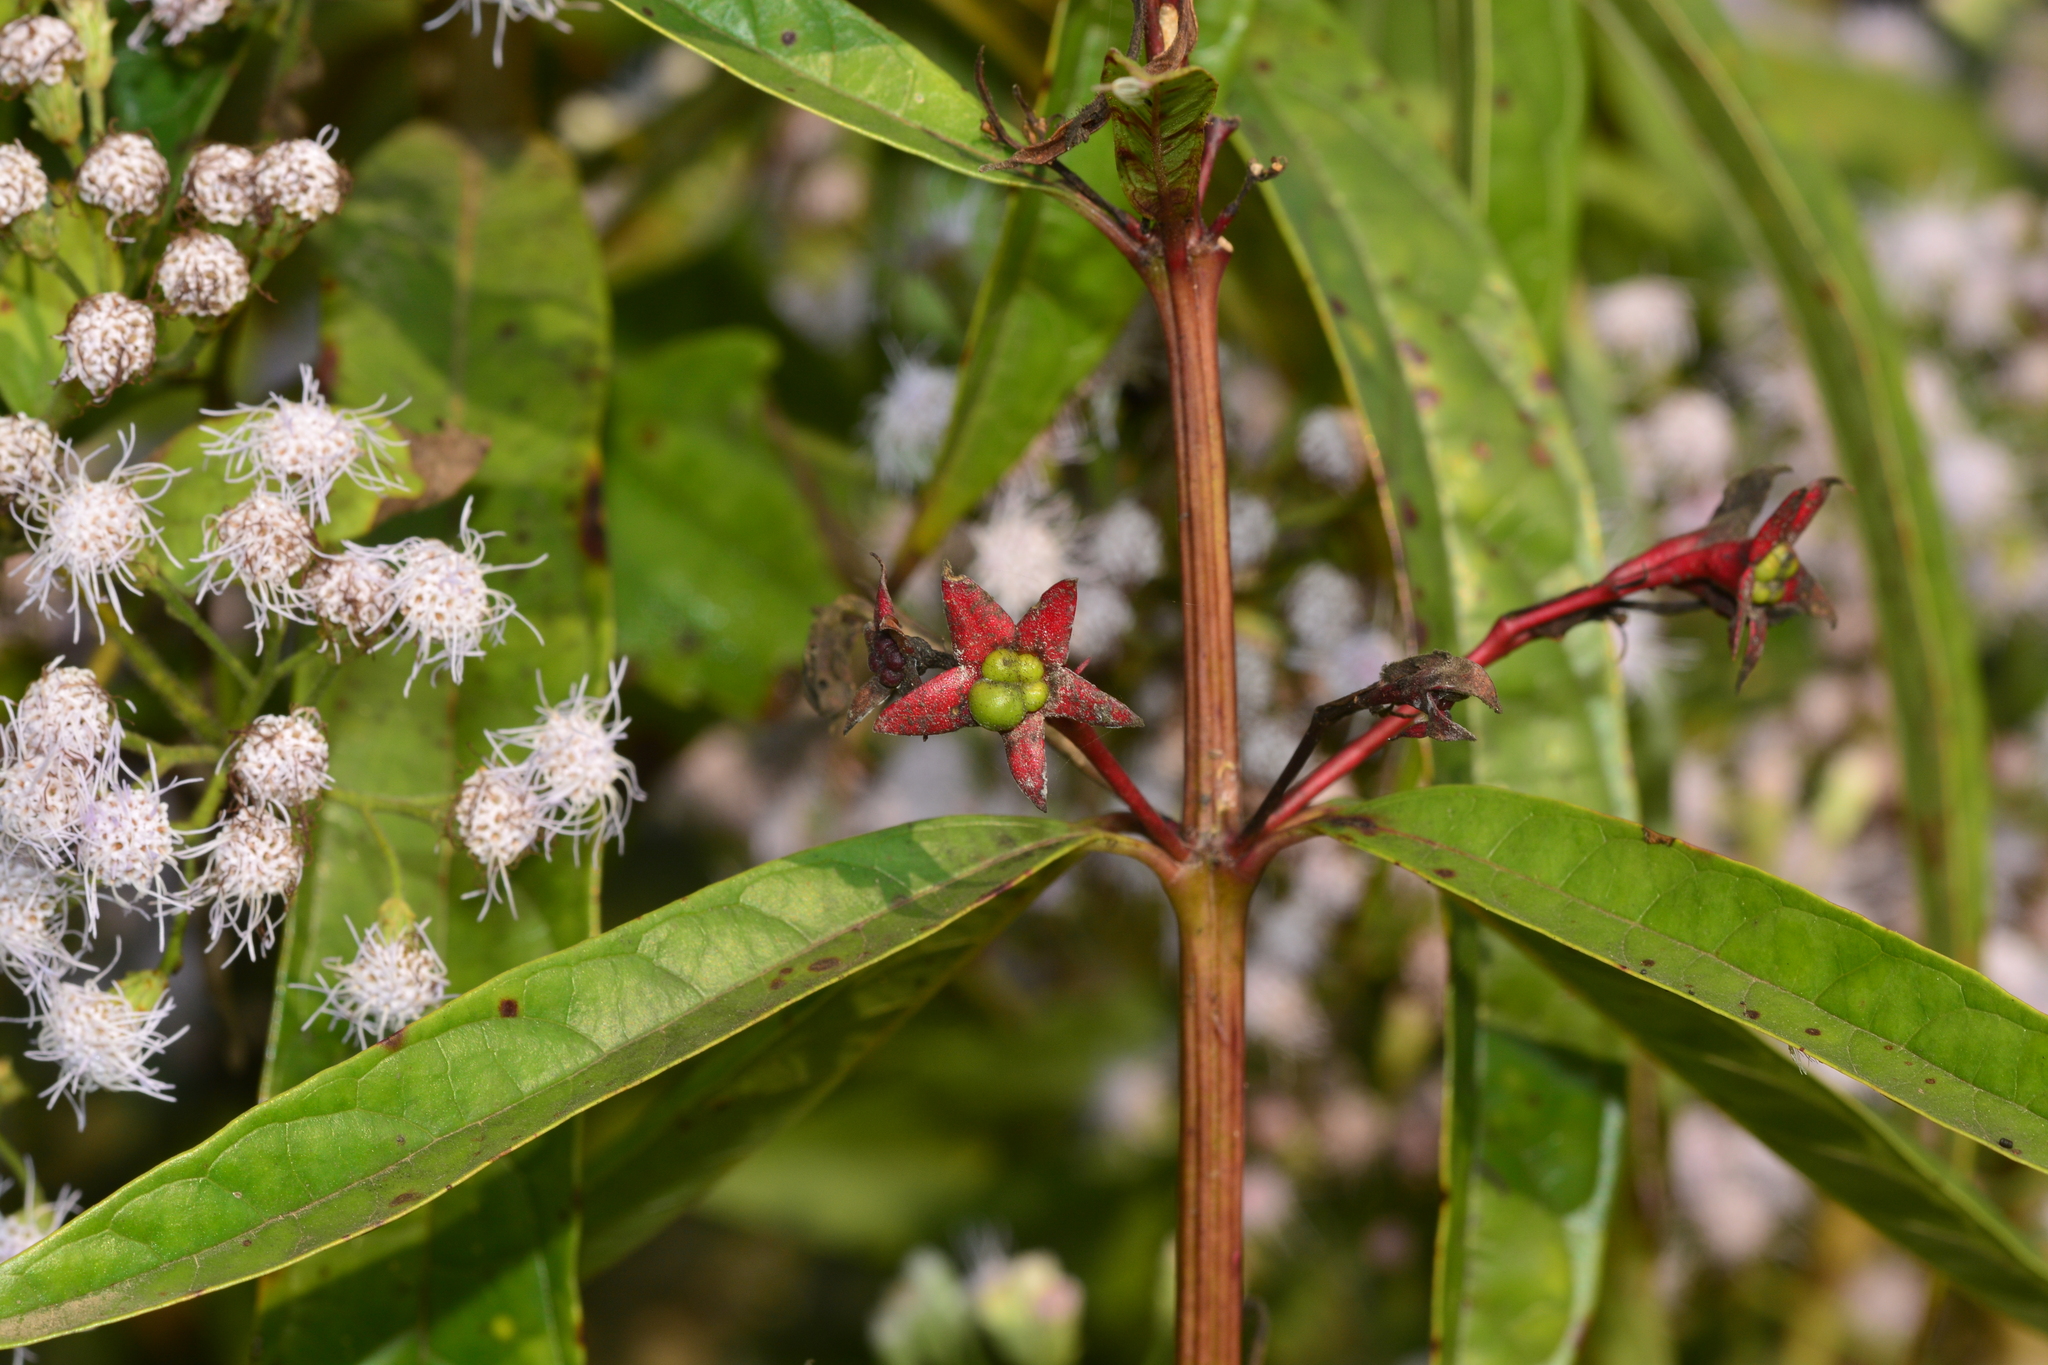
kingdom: Plantae
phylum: Tracheophyta
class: Magnoliopsida
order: Lamiales
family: Lamiaceae
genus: Clerodendrum
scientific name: Clerodendrum indicum
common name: Turk's turbin
